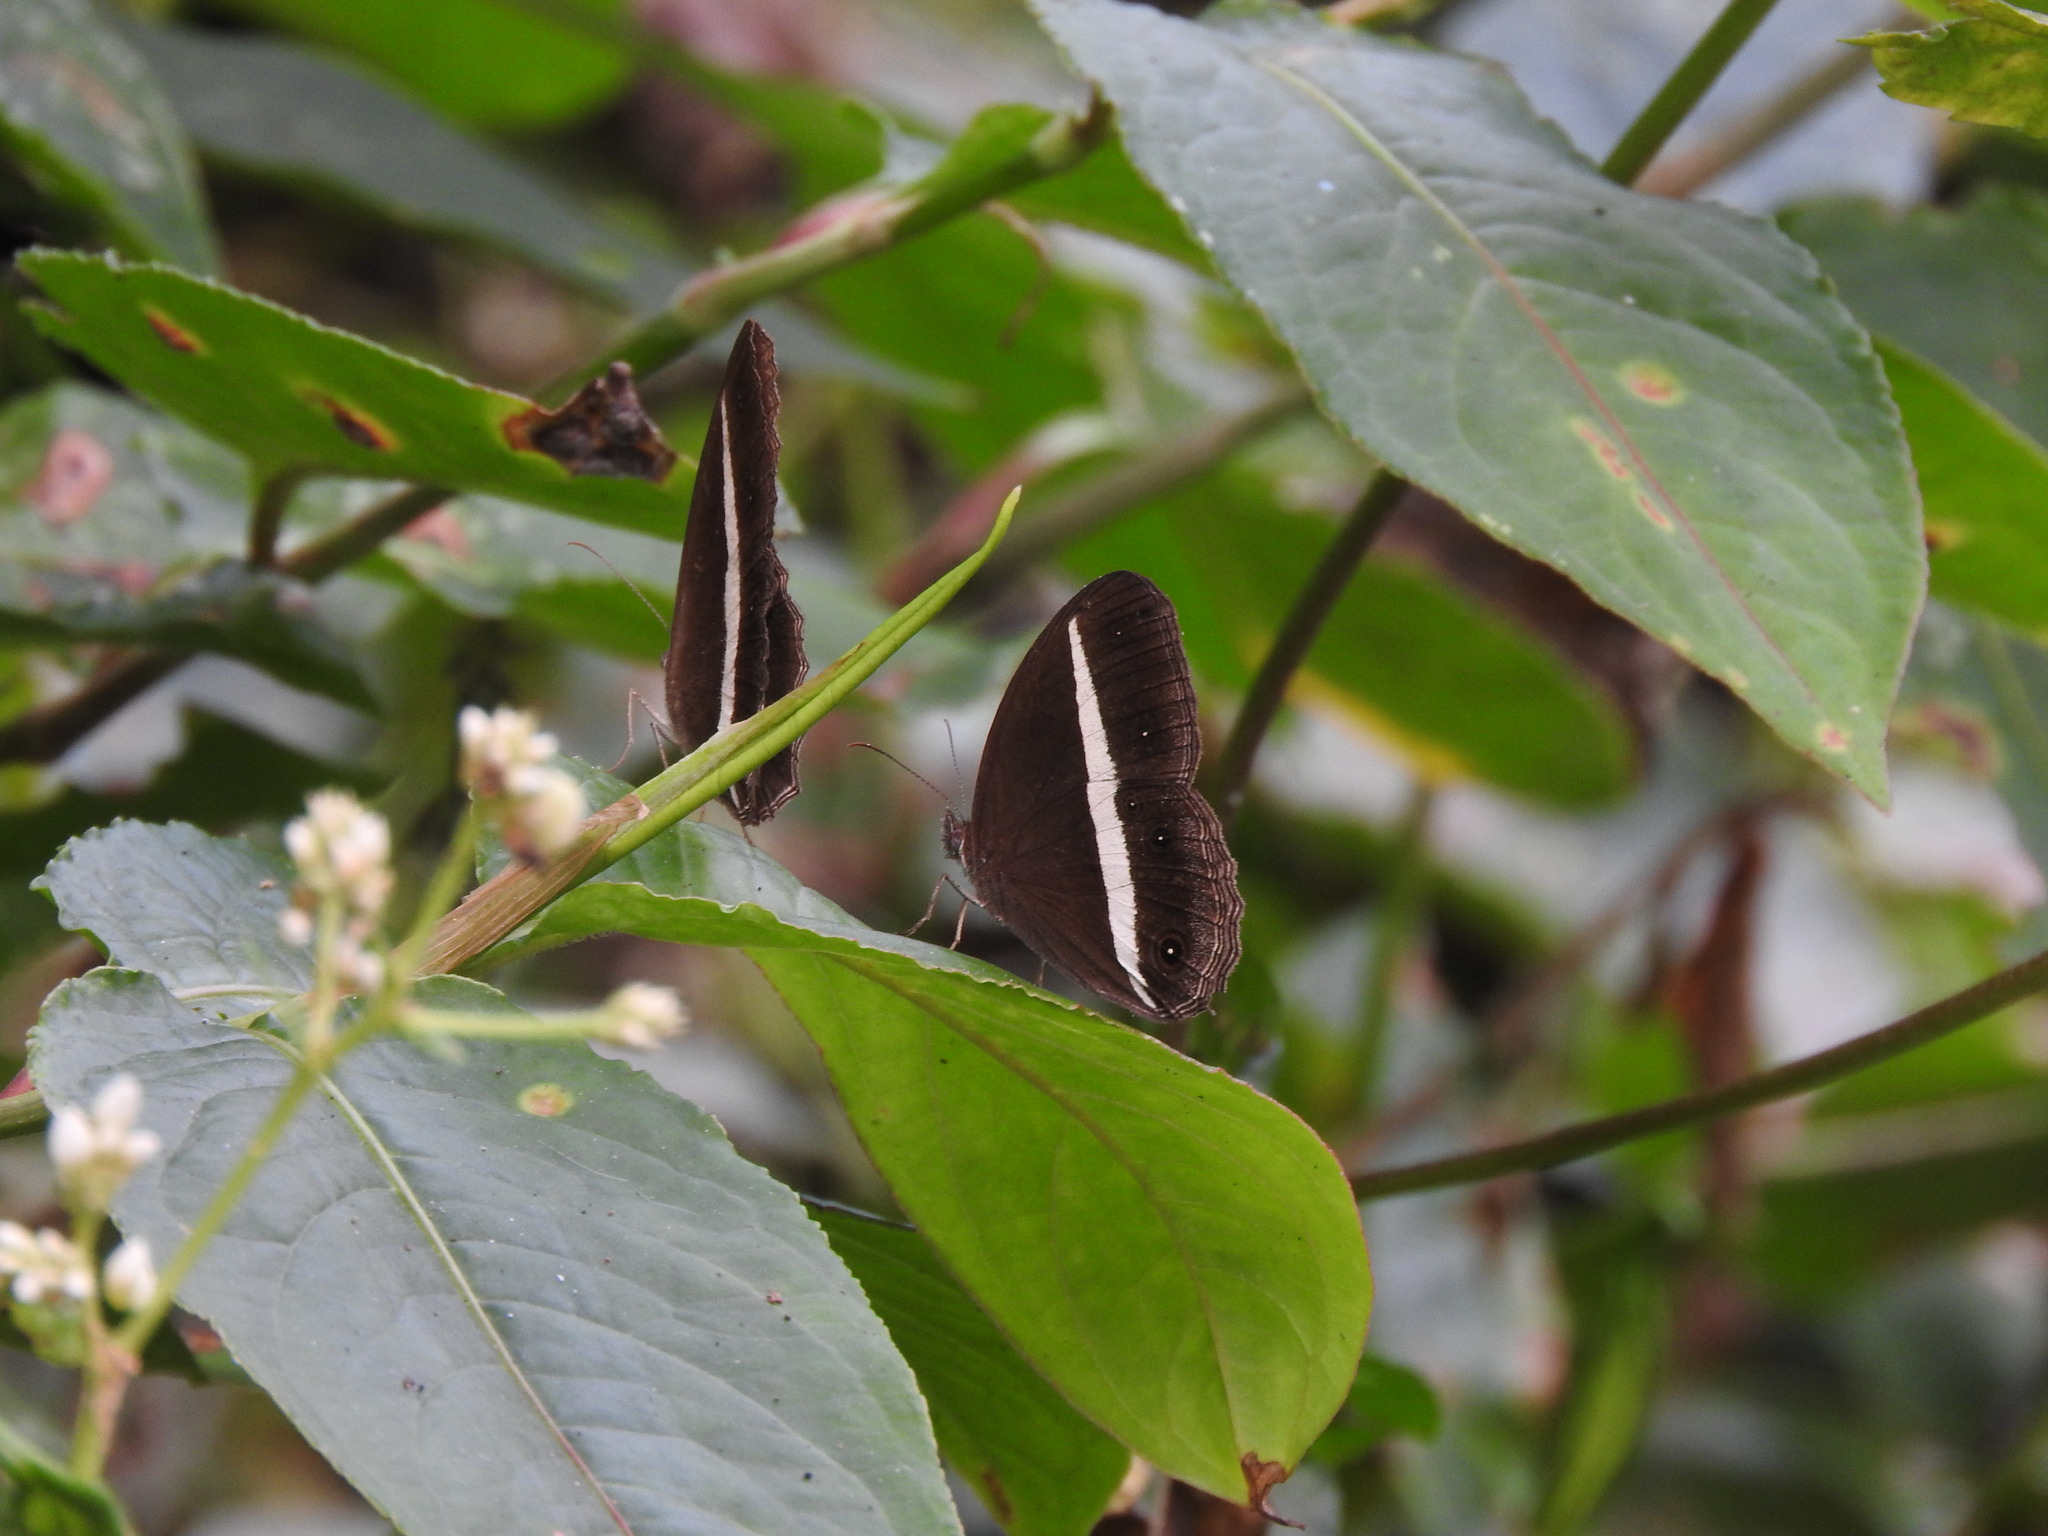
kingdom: Animalia
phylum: Arthropoda
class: Insecta
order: Lepidoptera
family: Nymphalidae
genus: Orsotriaena
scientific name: Orsotriaena medus
